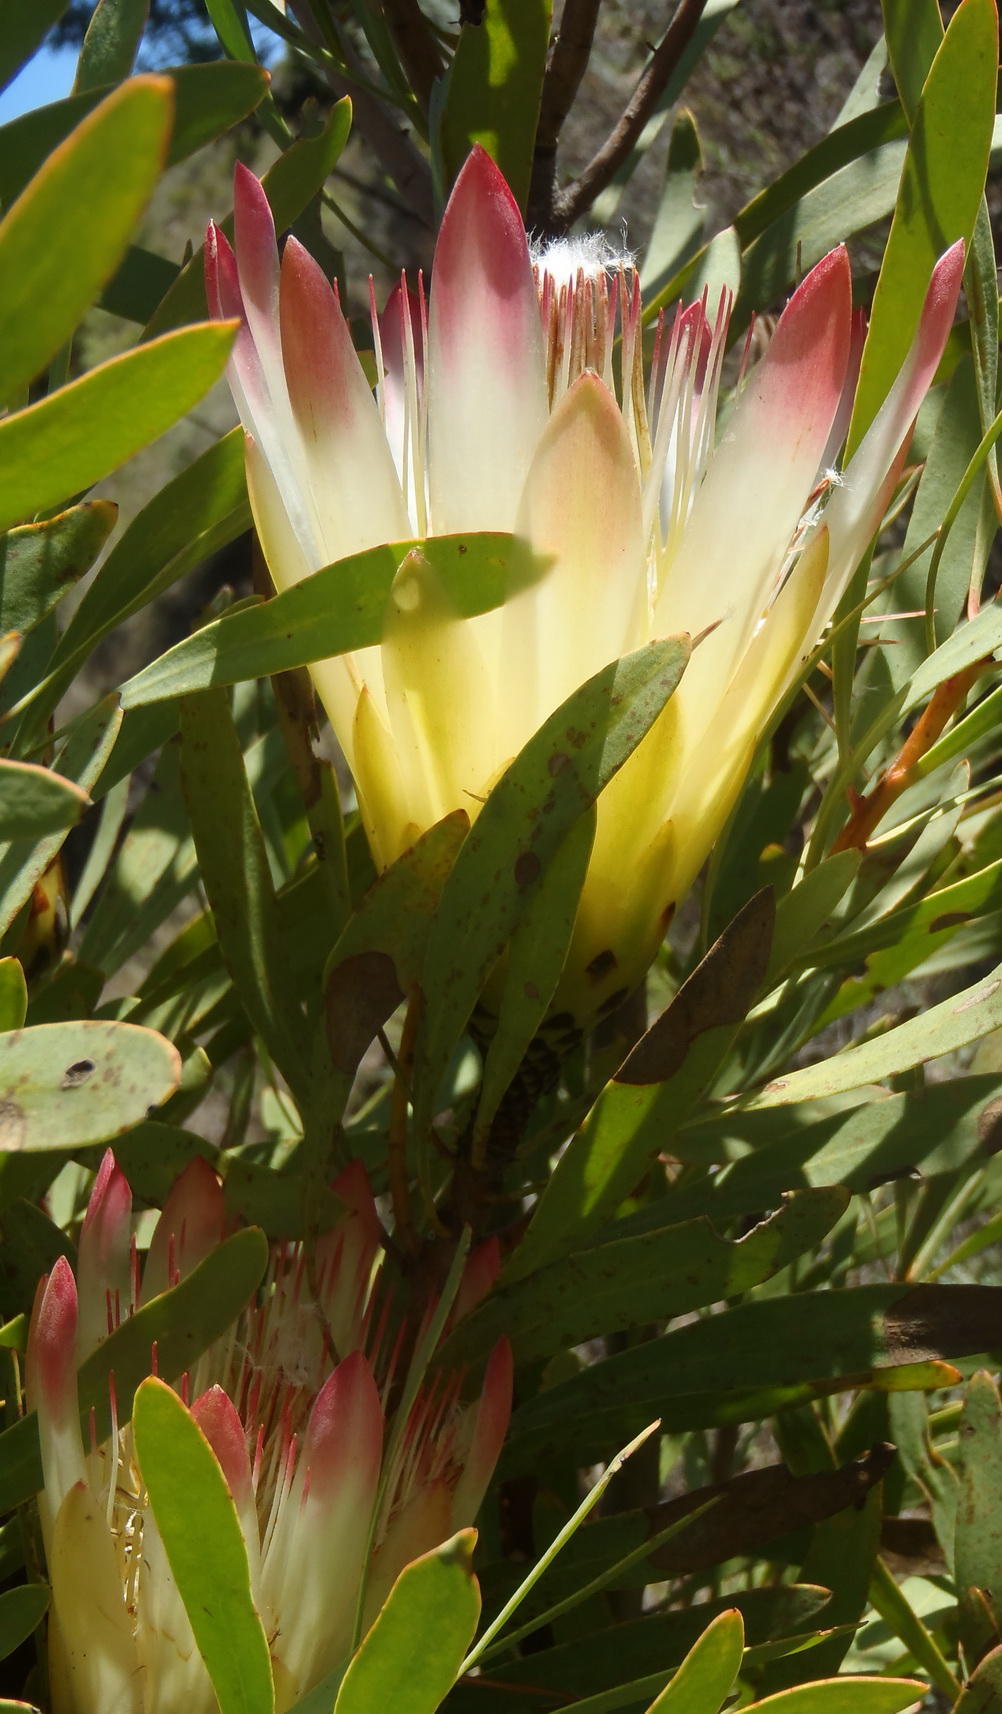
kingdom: Plantae
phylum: Tracheophyta
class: Magnoliopsida
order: Proteales
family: Proteaceae
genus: Protea
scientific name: Protea repens
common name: Sugarbush
